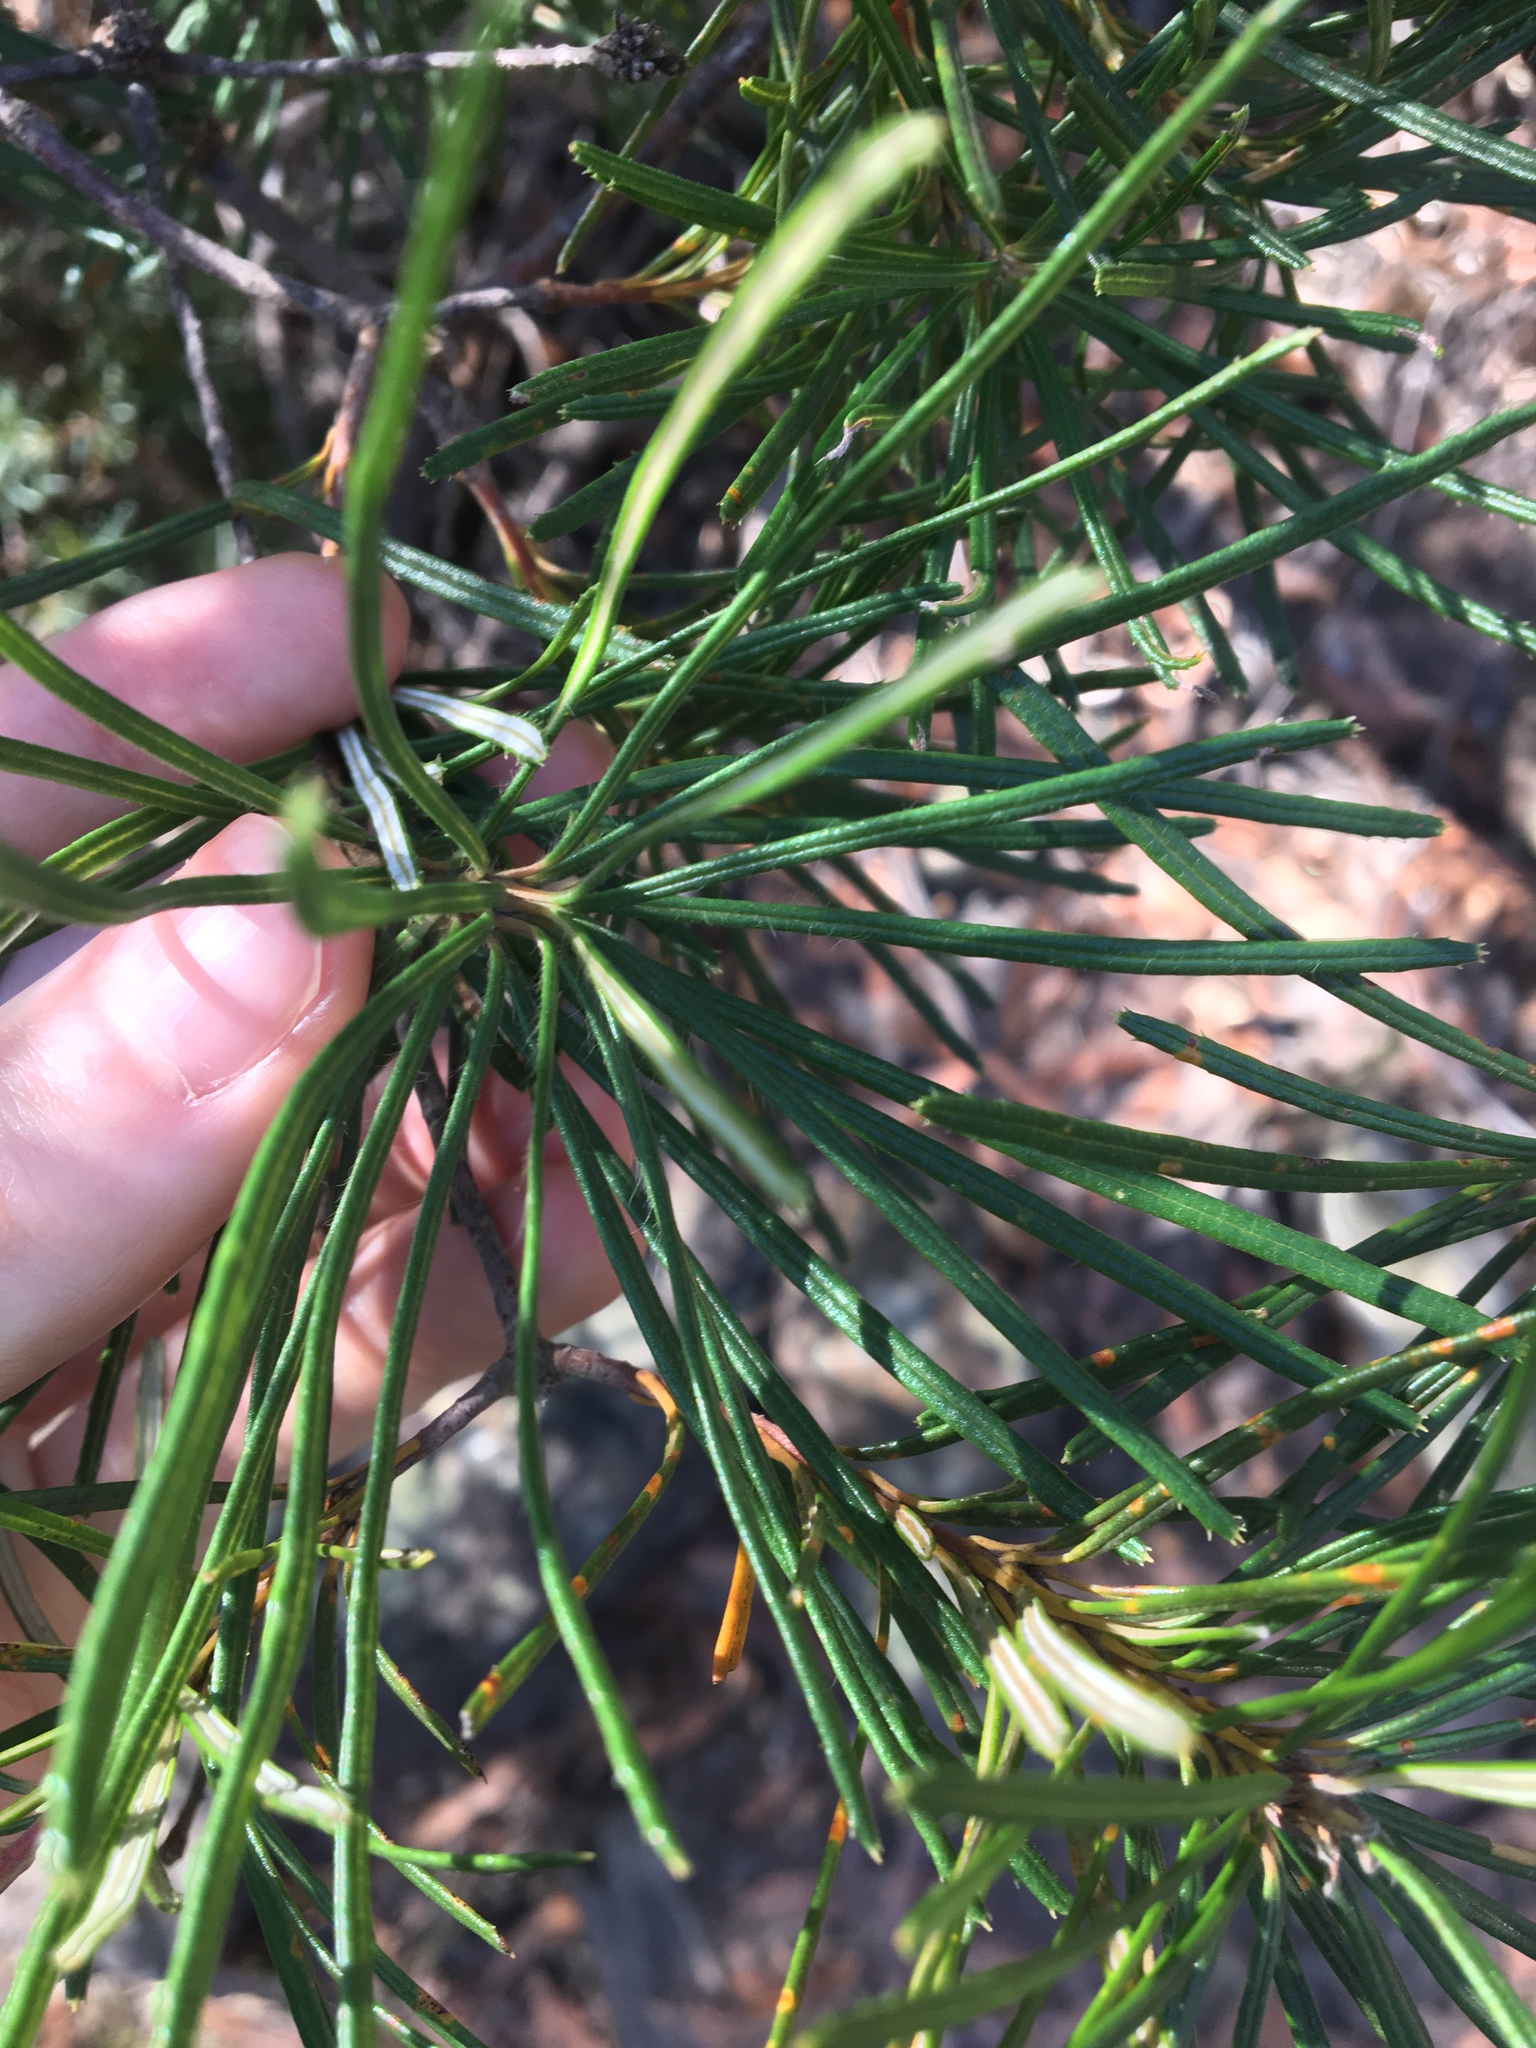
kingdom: Plantae
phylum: Tracheophyta
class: Magnoliopsida
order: Proteales
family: Proteaceae
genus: Banksia
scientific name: Banksia spinulosa
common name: Hairpin banksia
